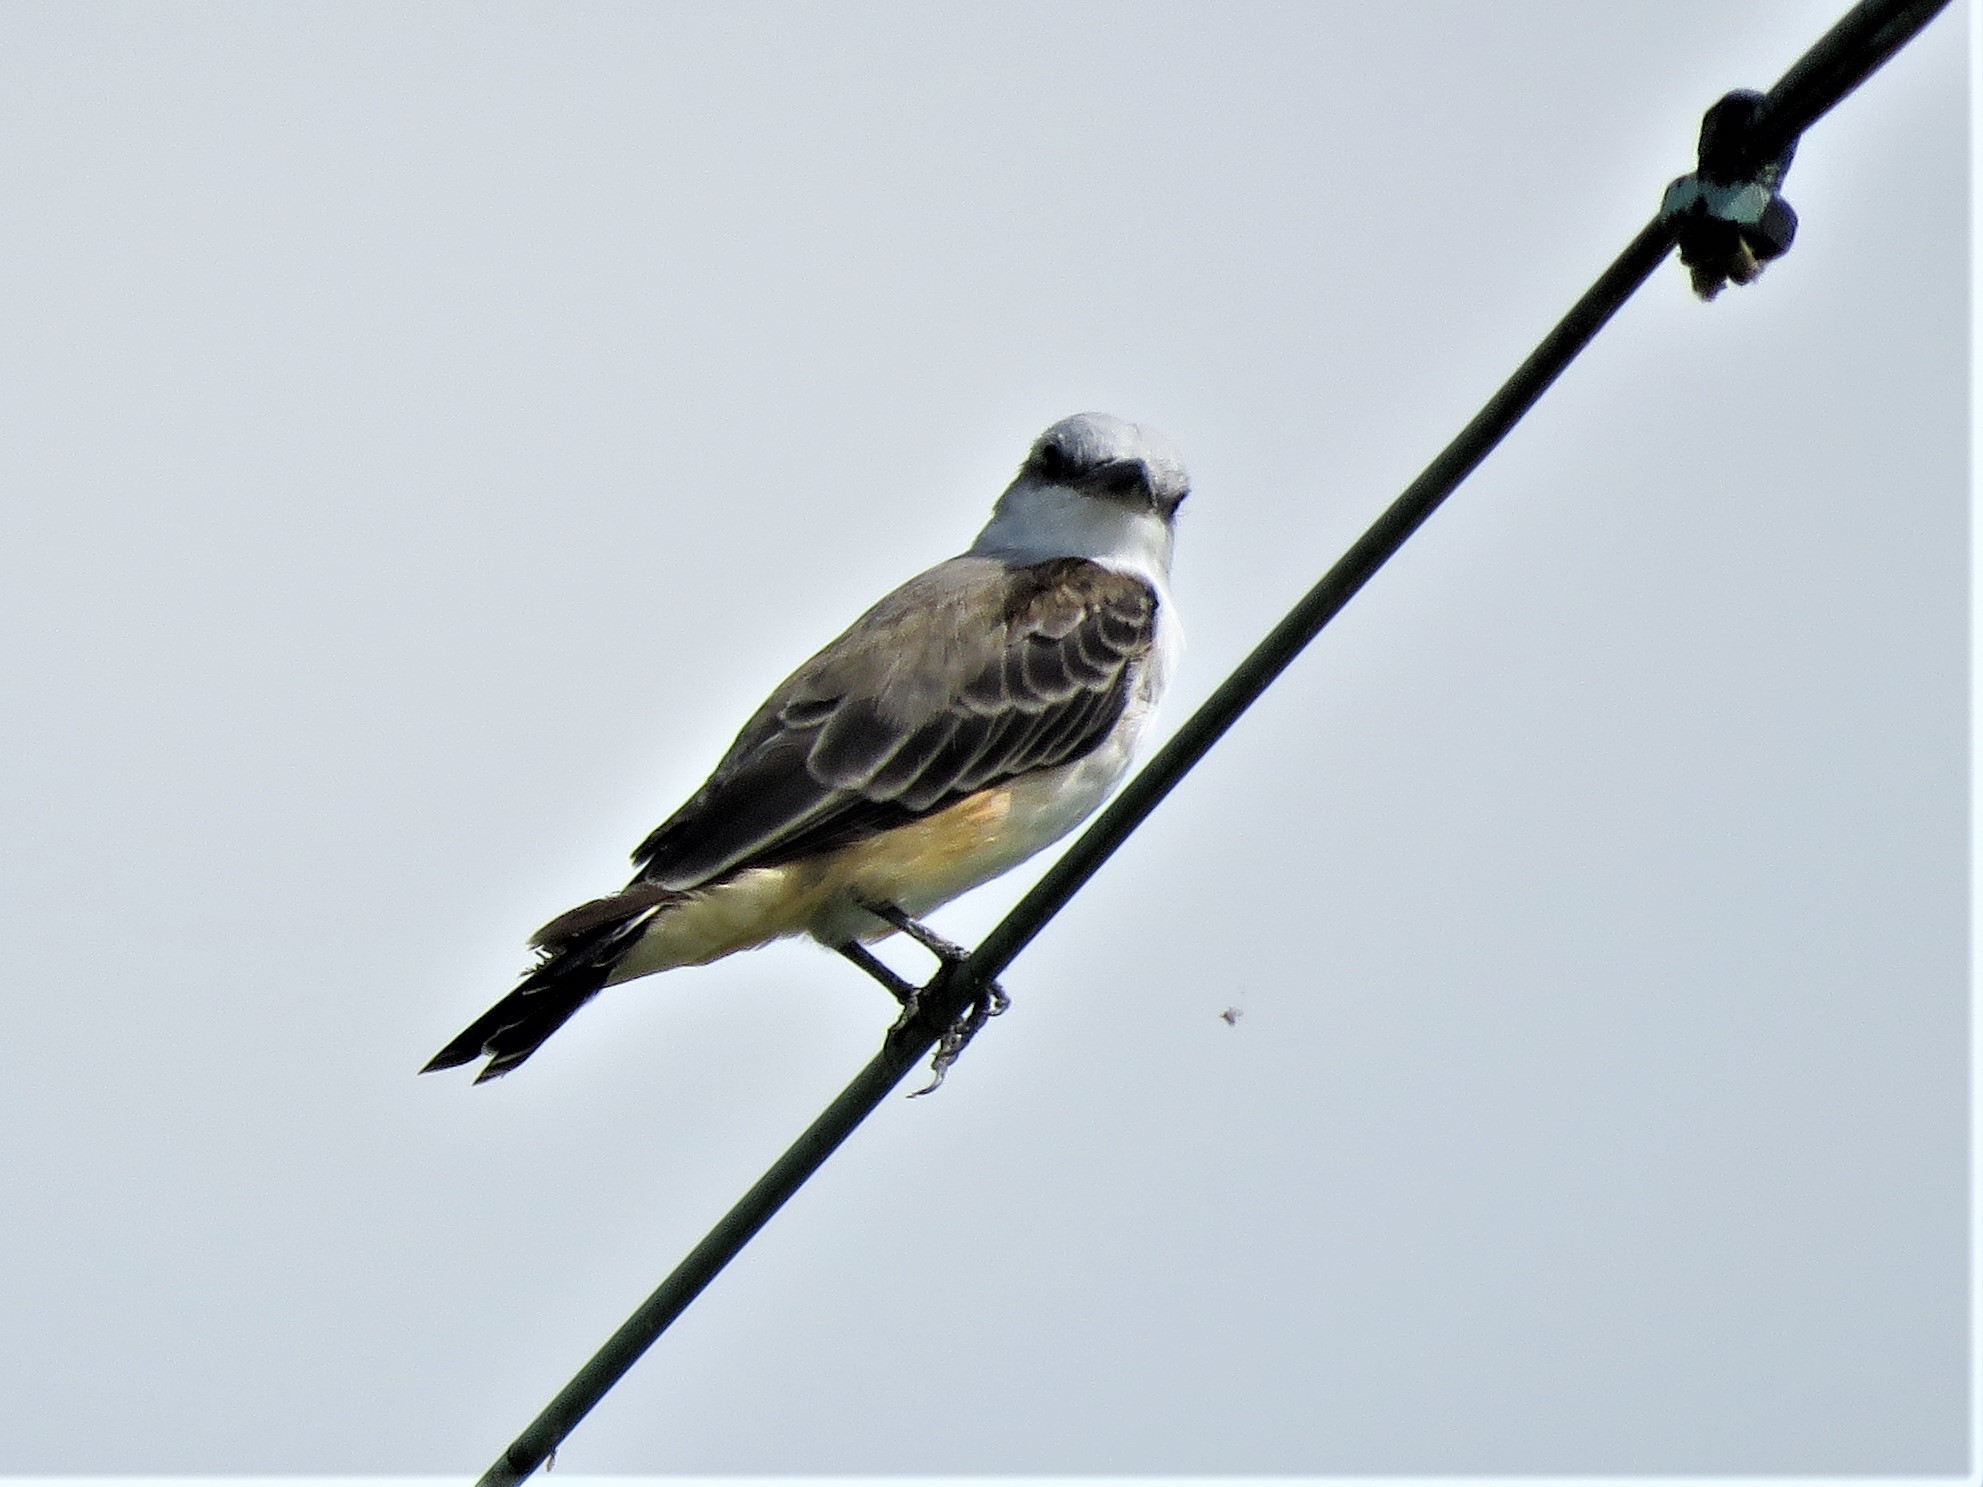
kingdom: Animalia
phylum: Chordata
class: Aves
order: Passeriformes
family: Tyrannidae
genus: Tyrannus
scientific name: Tyrannus forficatus
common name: Scissor-tailed flycatcher
